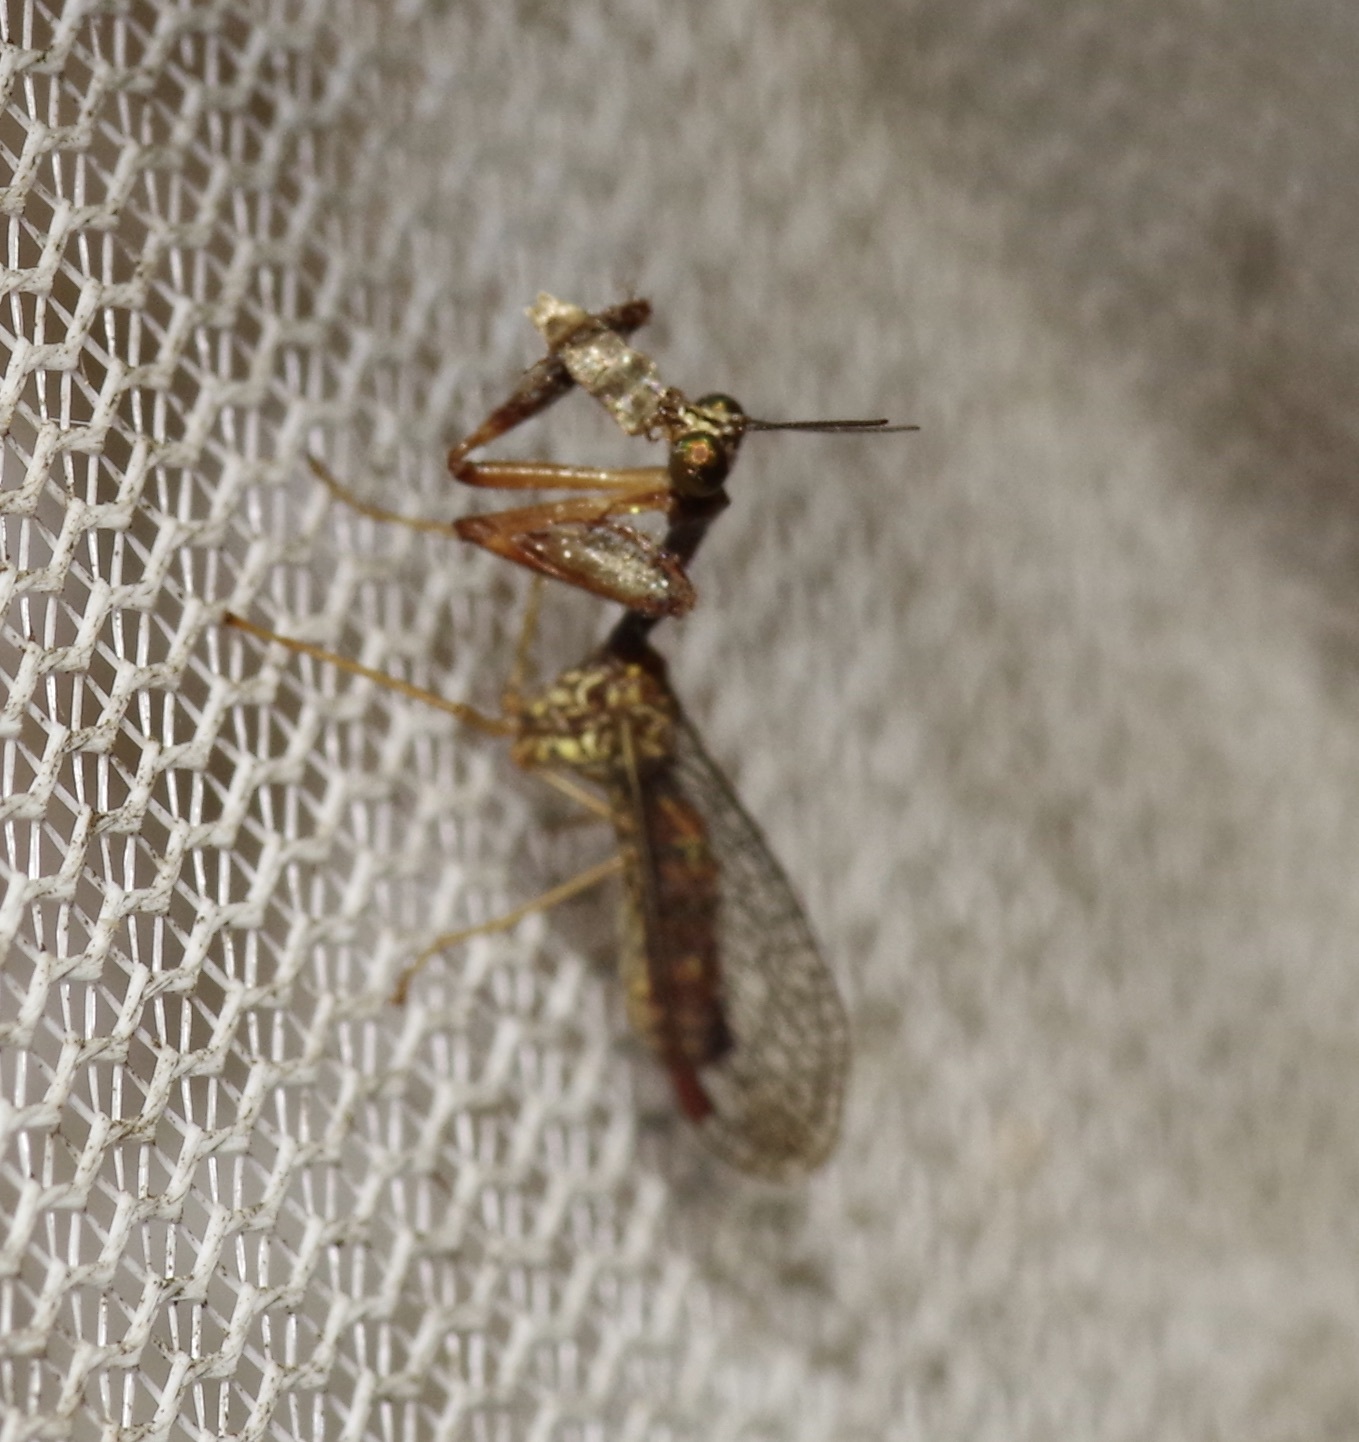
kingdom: Animalia
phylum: Arthropoda
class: Insecta
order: Neuroptera
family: Mantispidae
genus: Leptomantispa
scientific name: Leptomantispa pulchella
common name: Stevens's mantidfly
